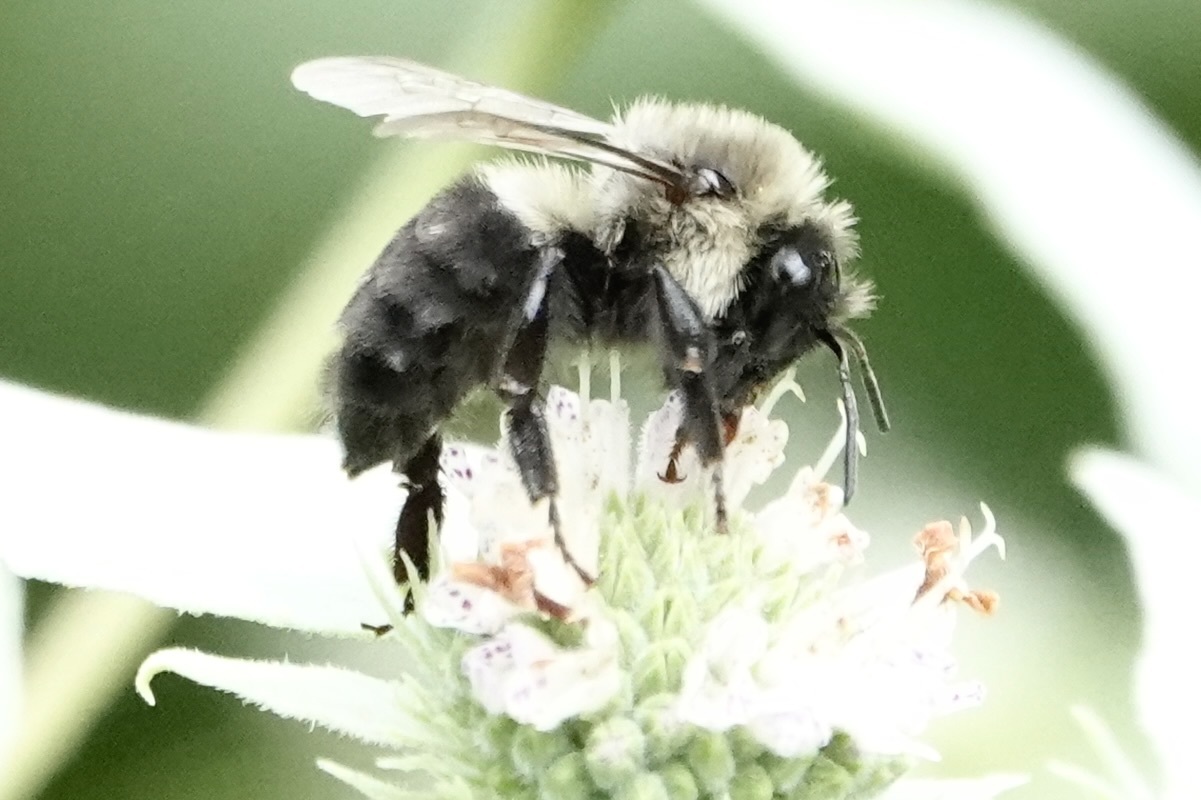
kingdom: Animalia
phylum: Arthropoda
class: Insecta
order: Hymenoptera
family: Apidae
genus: Bombus
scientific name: Bombus impatiens
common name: Common eastern bumble bee
